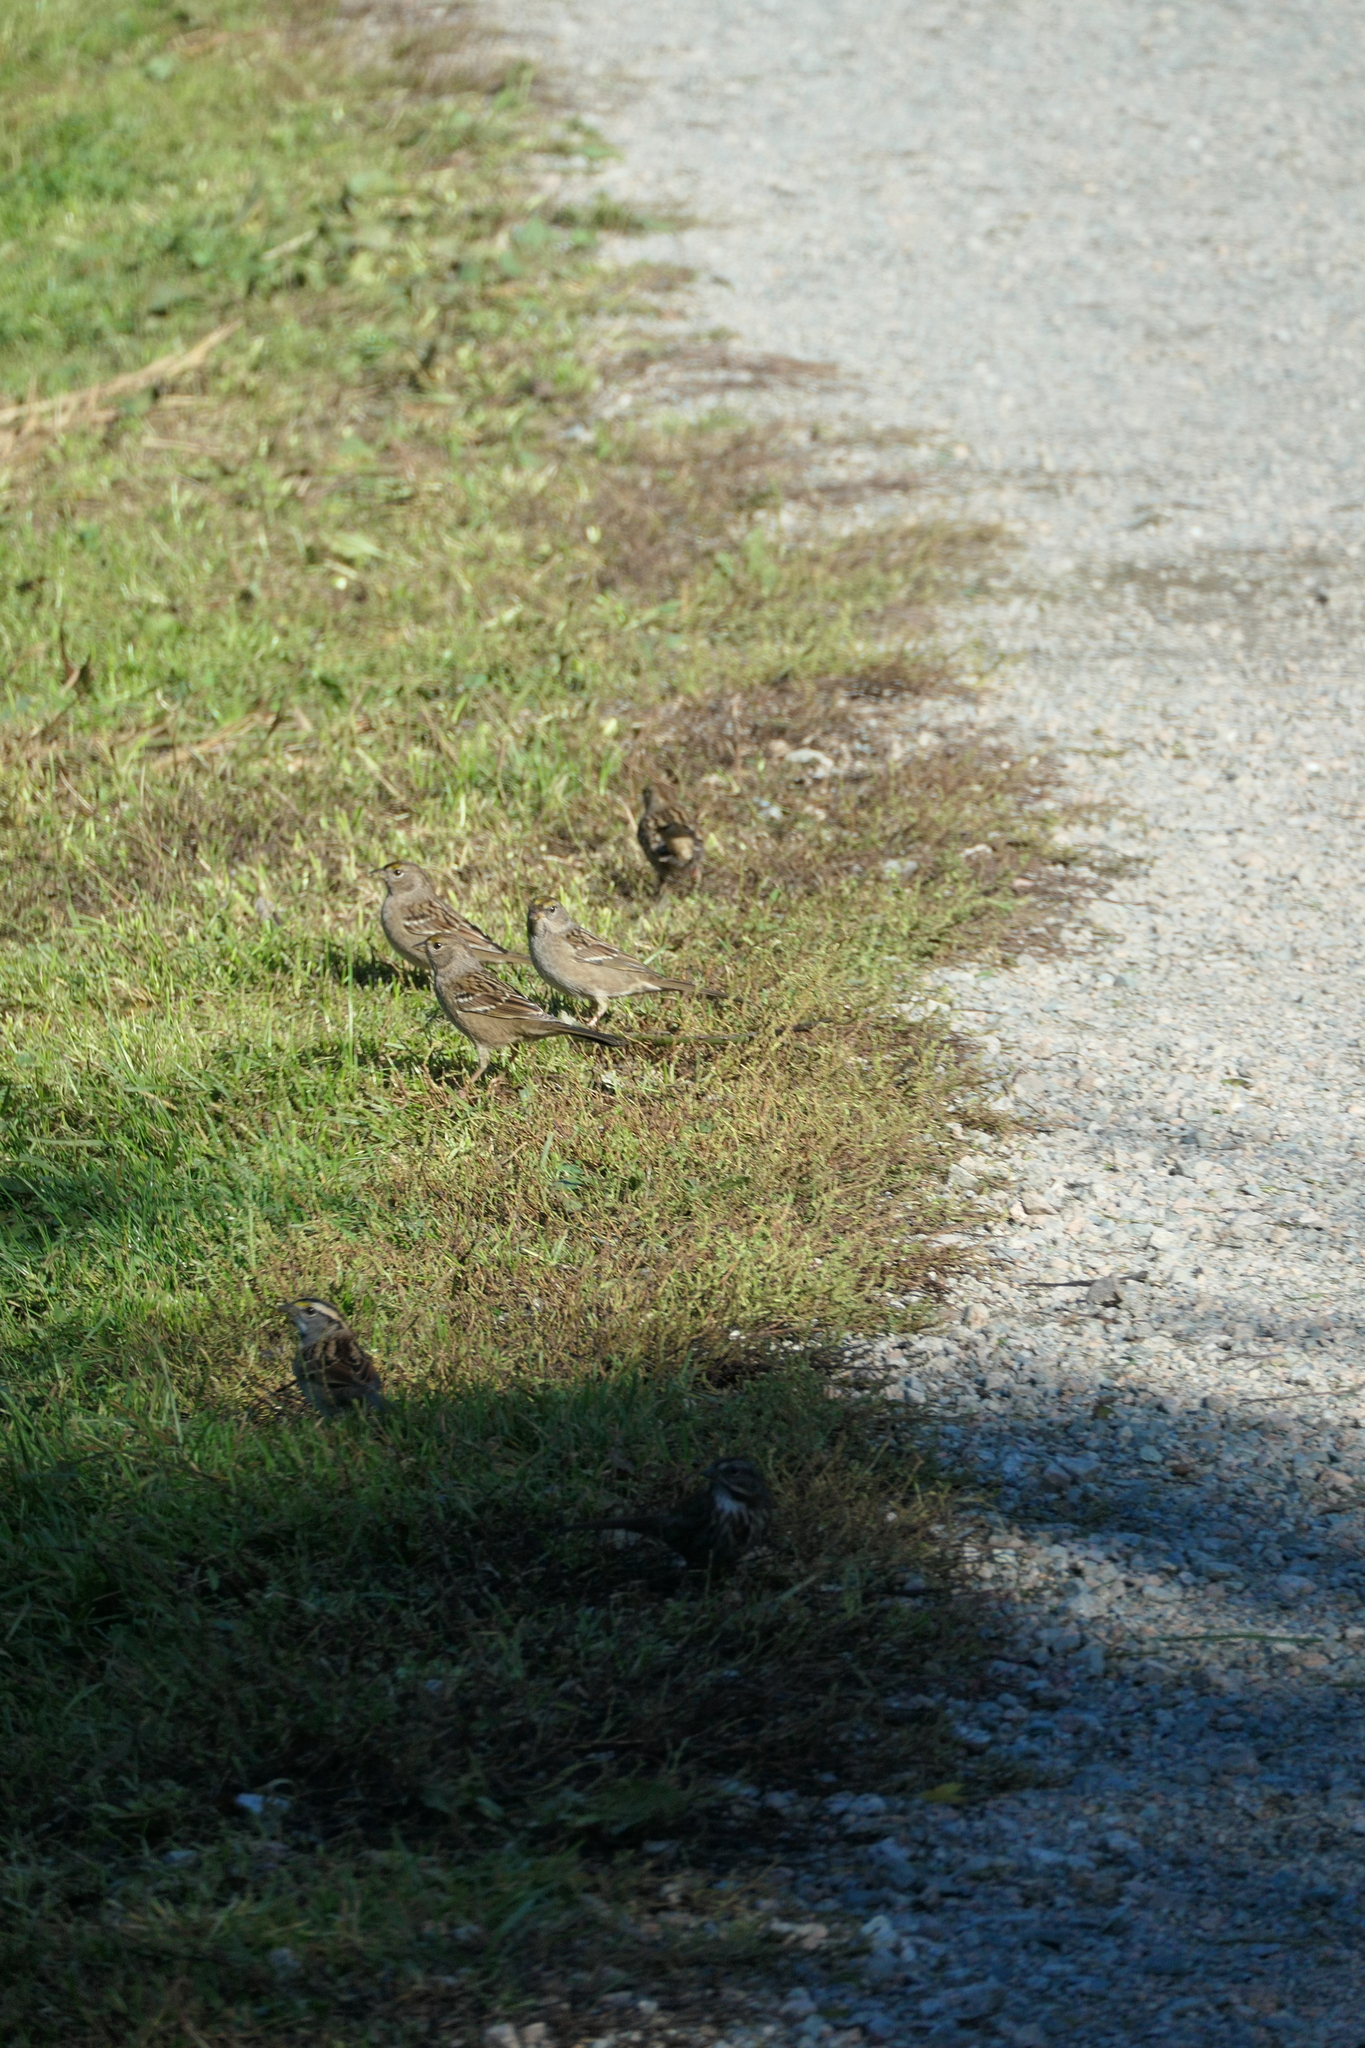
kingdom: Animalia
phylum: Chordata
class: Aves
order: Passeriformes
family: Passerellidae
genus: Zonotrichia
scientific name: Zonotrichia atricapilla
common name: Golden-crowned sparrow
